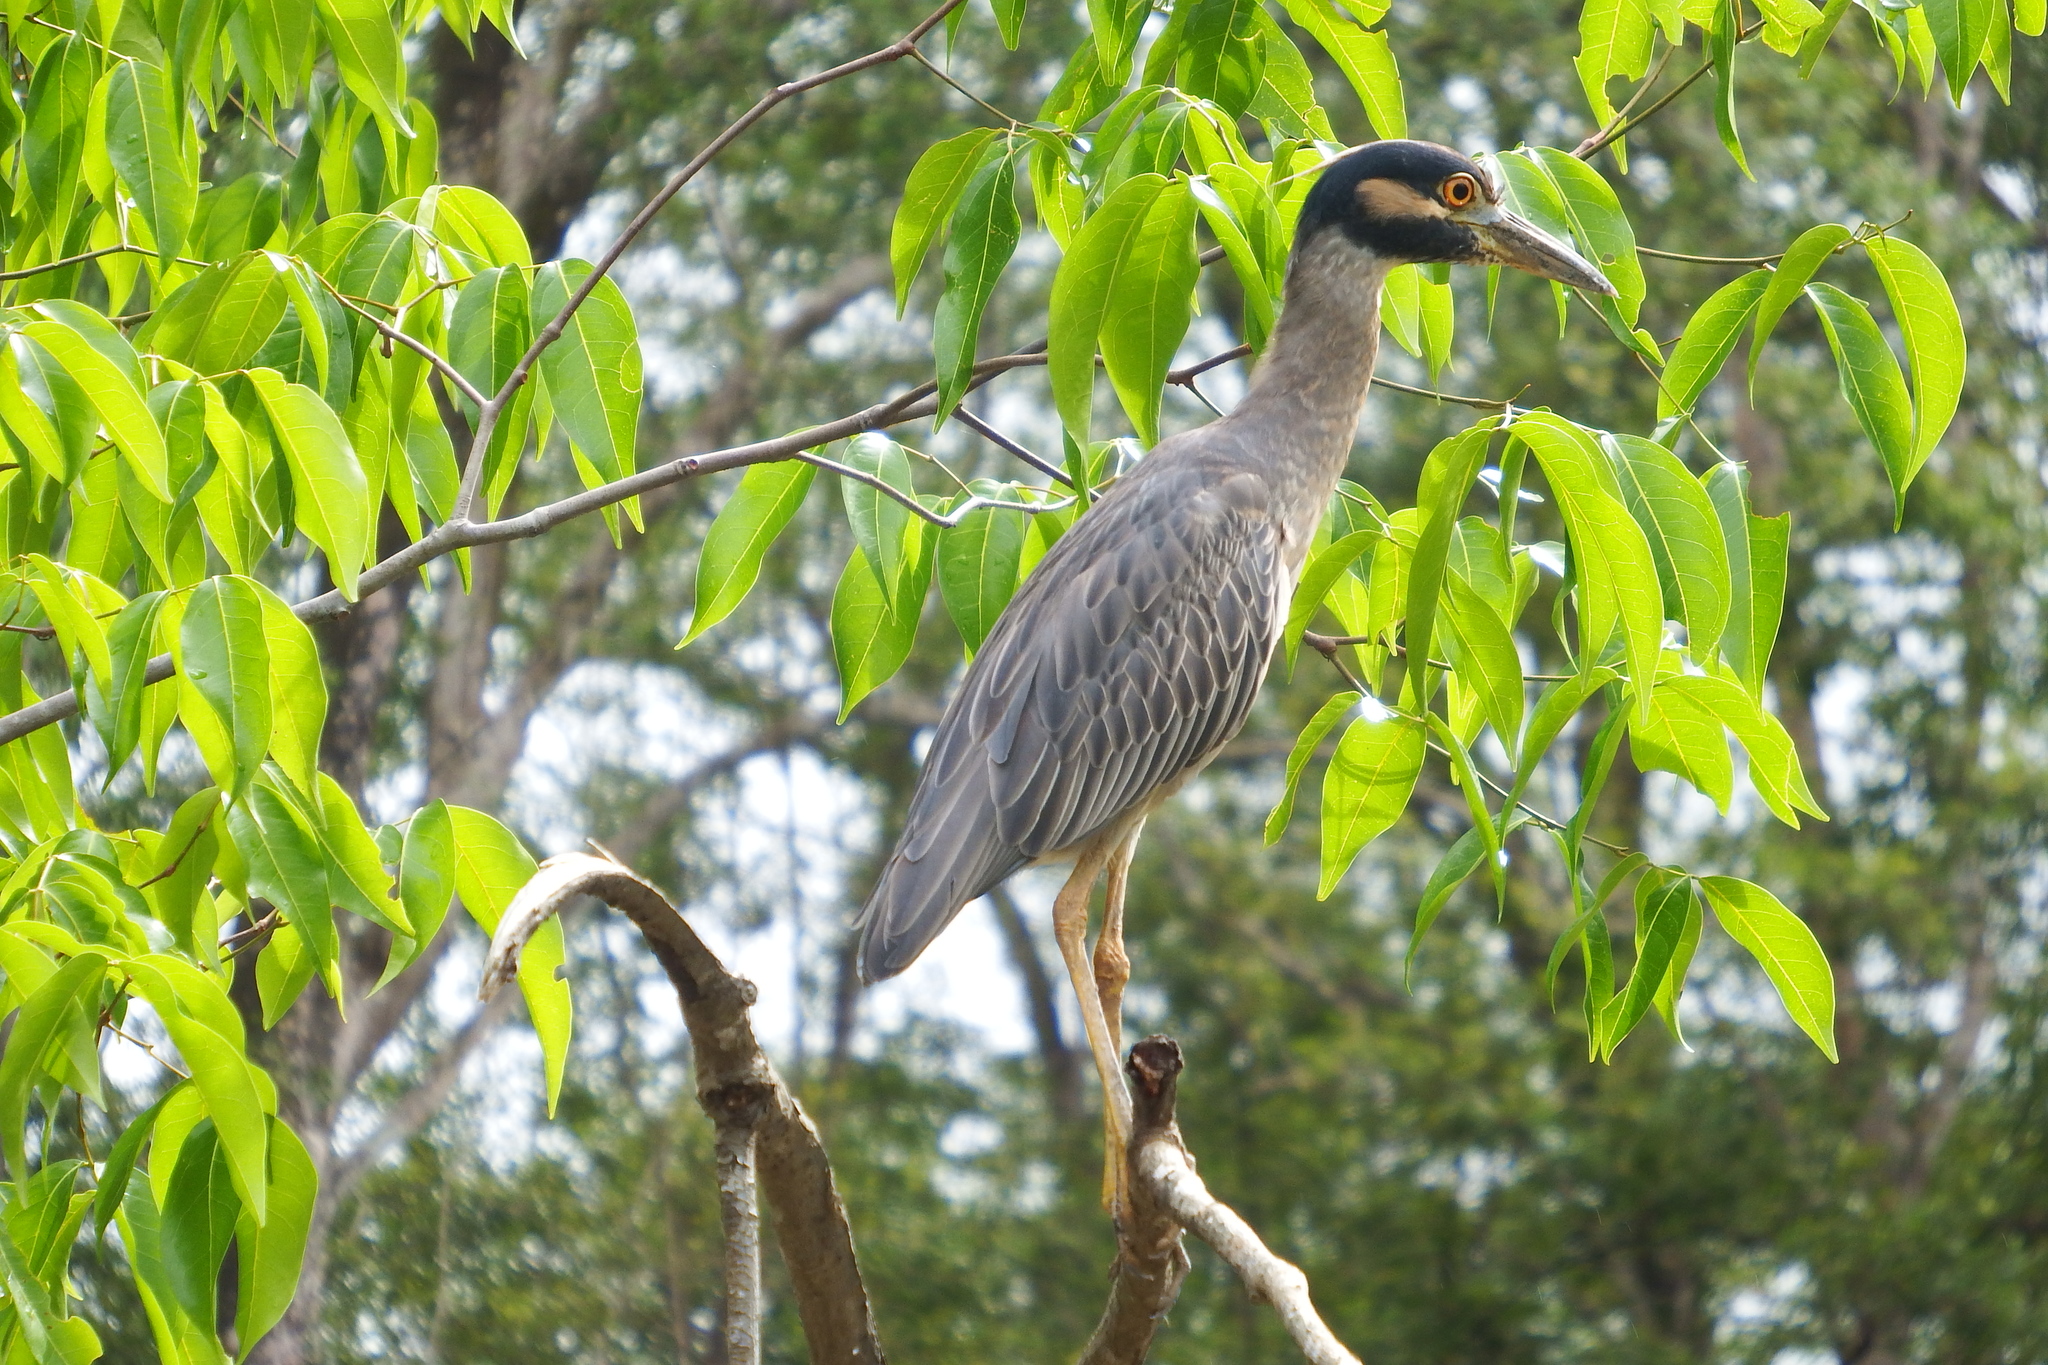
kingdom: Animalia
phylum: Chordata
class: Aves
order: Pelecaniformes
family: Ardeidae
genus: Nyctanassa
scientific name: Nyctanassa violacea
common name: Yellow-crowned night heron
